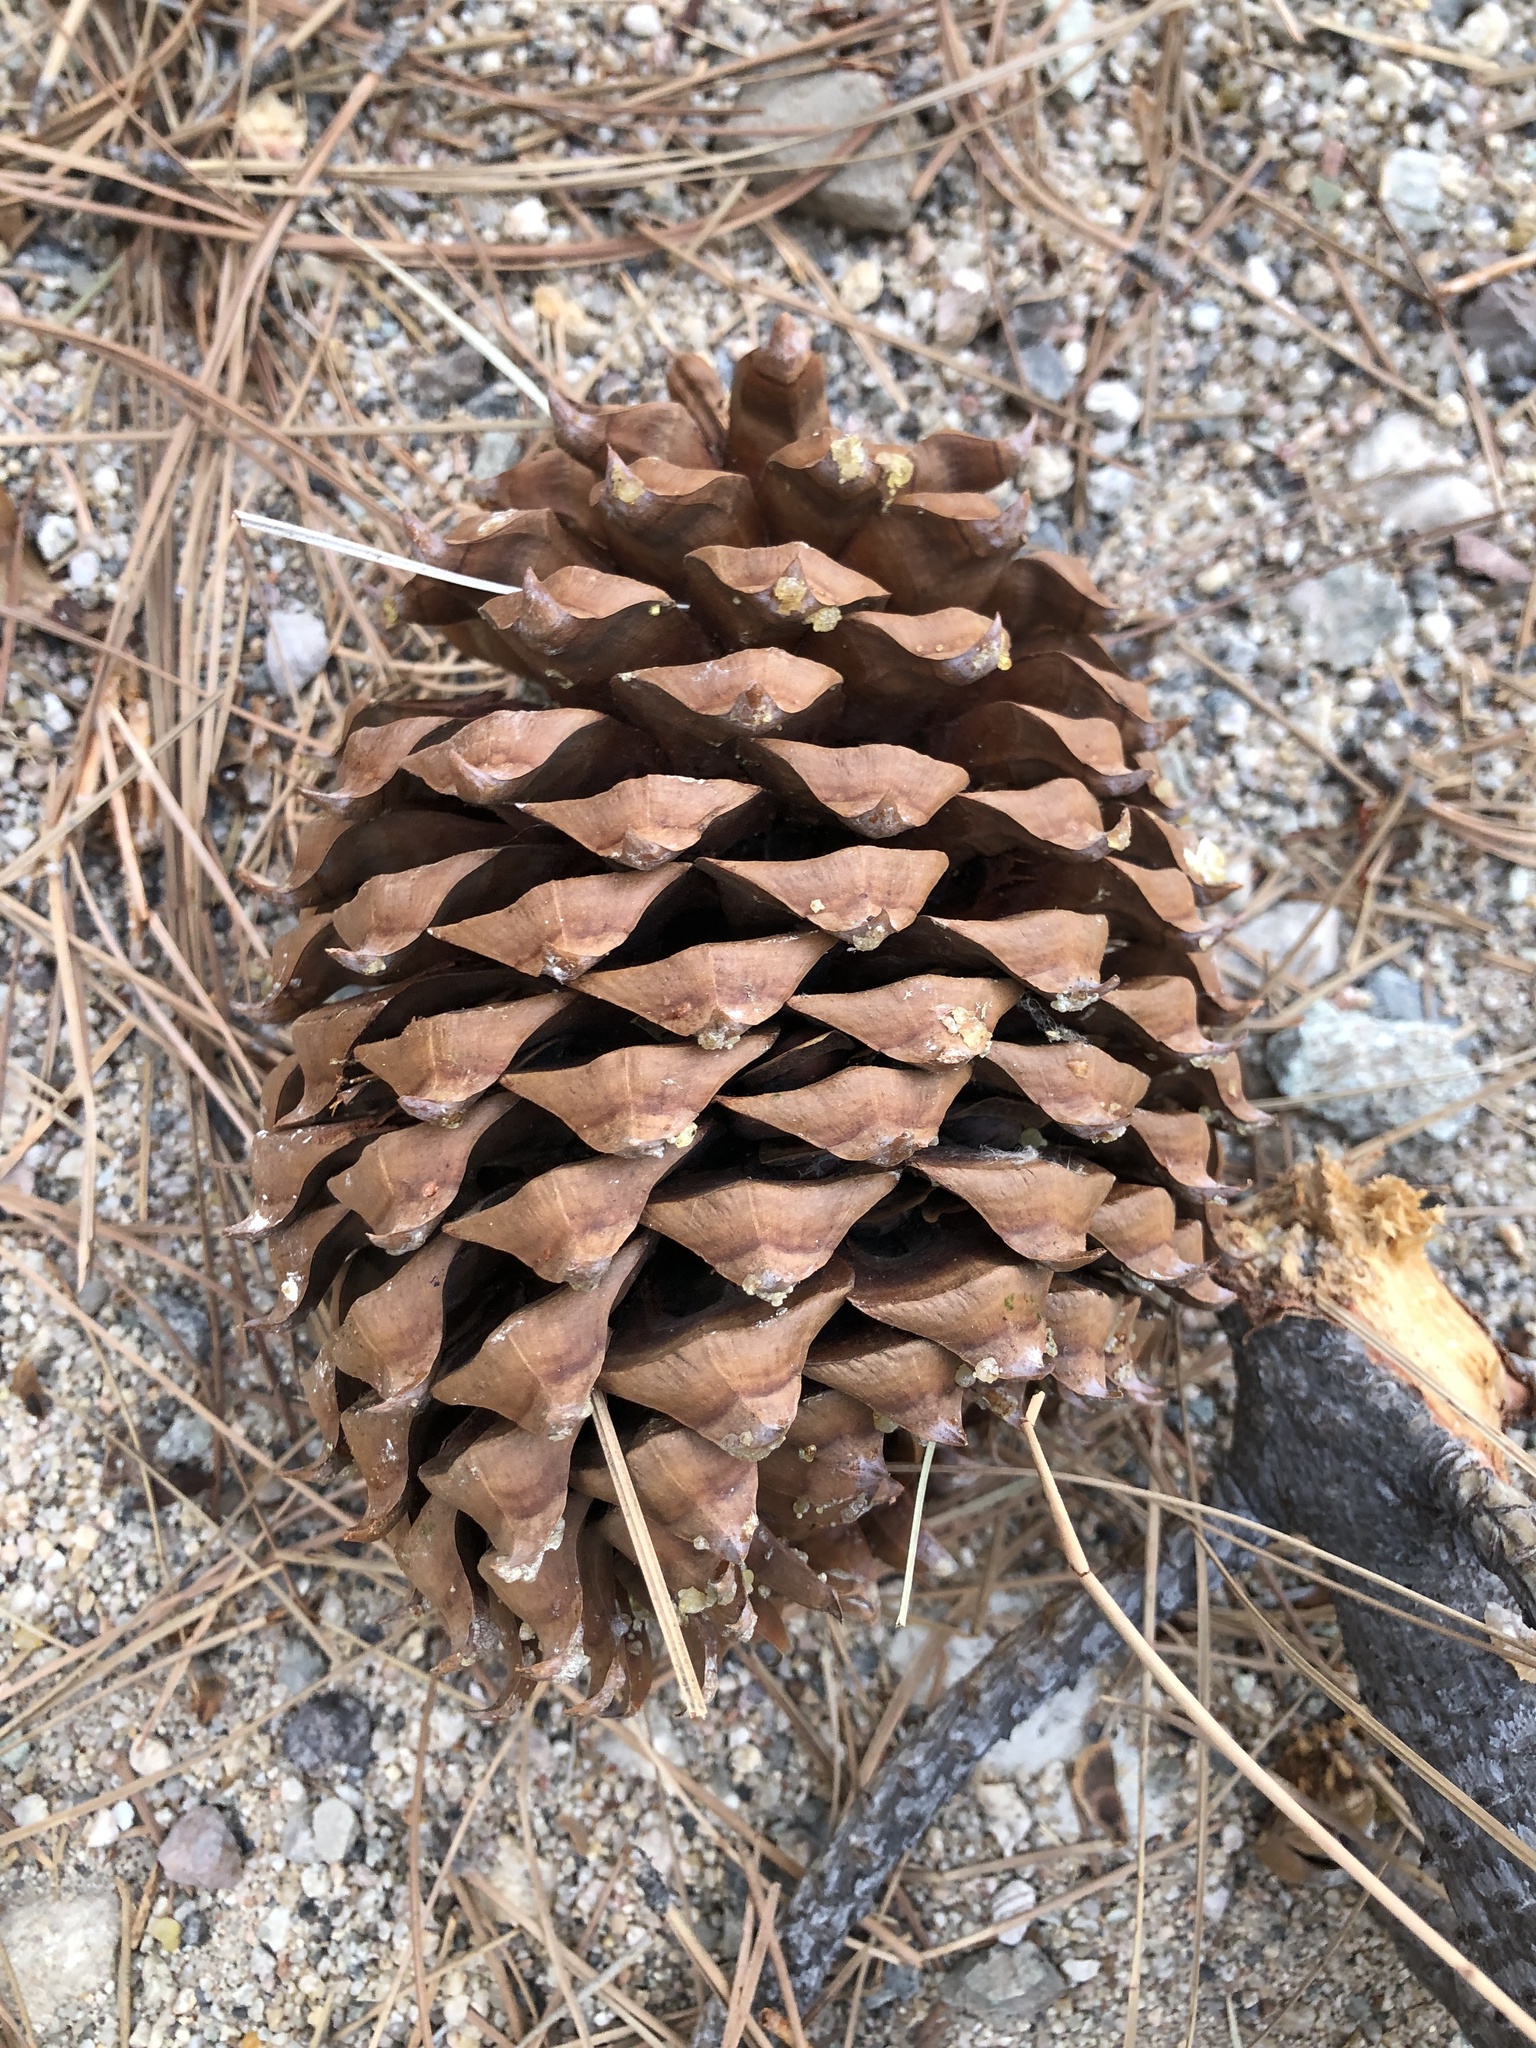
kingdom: Plantae
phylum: Tracheophyta
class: Pinopsida
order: Pinales
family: Pinaceae
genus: Pinus
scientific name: Pinus sabiniana
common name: Bull pine
